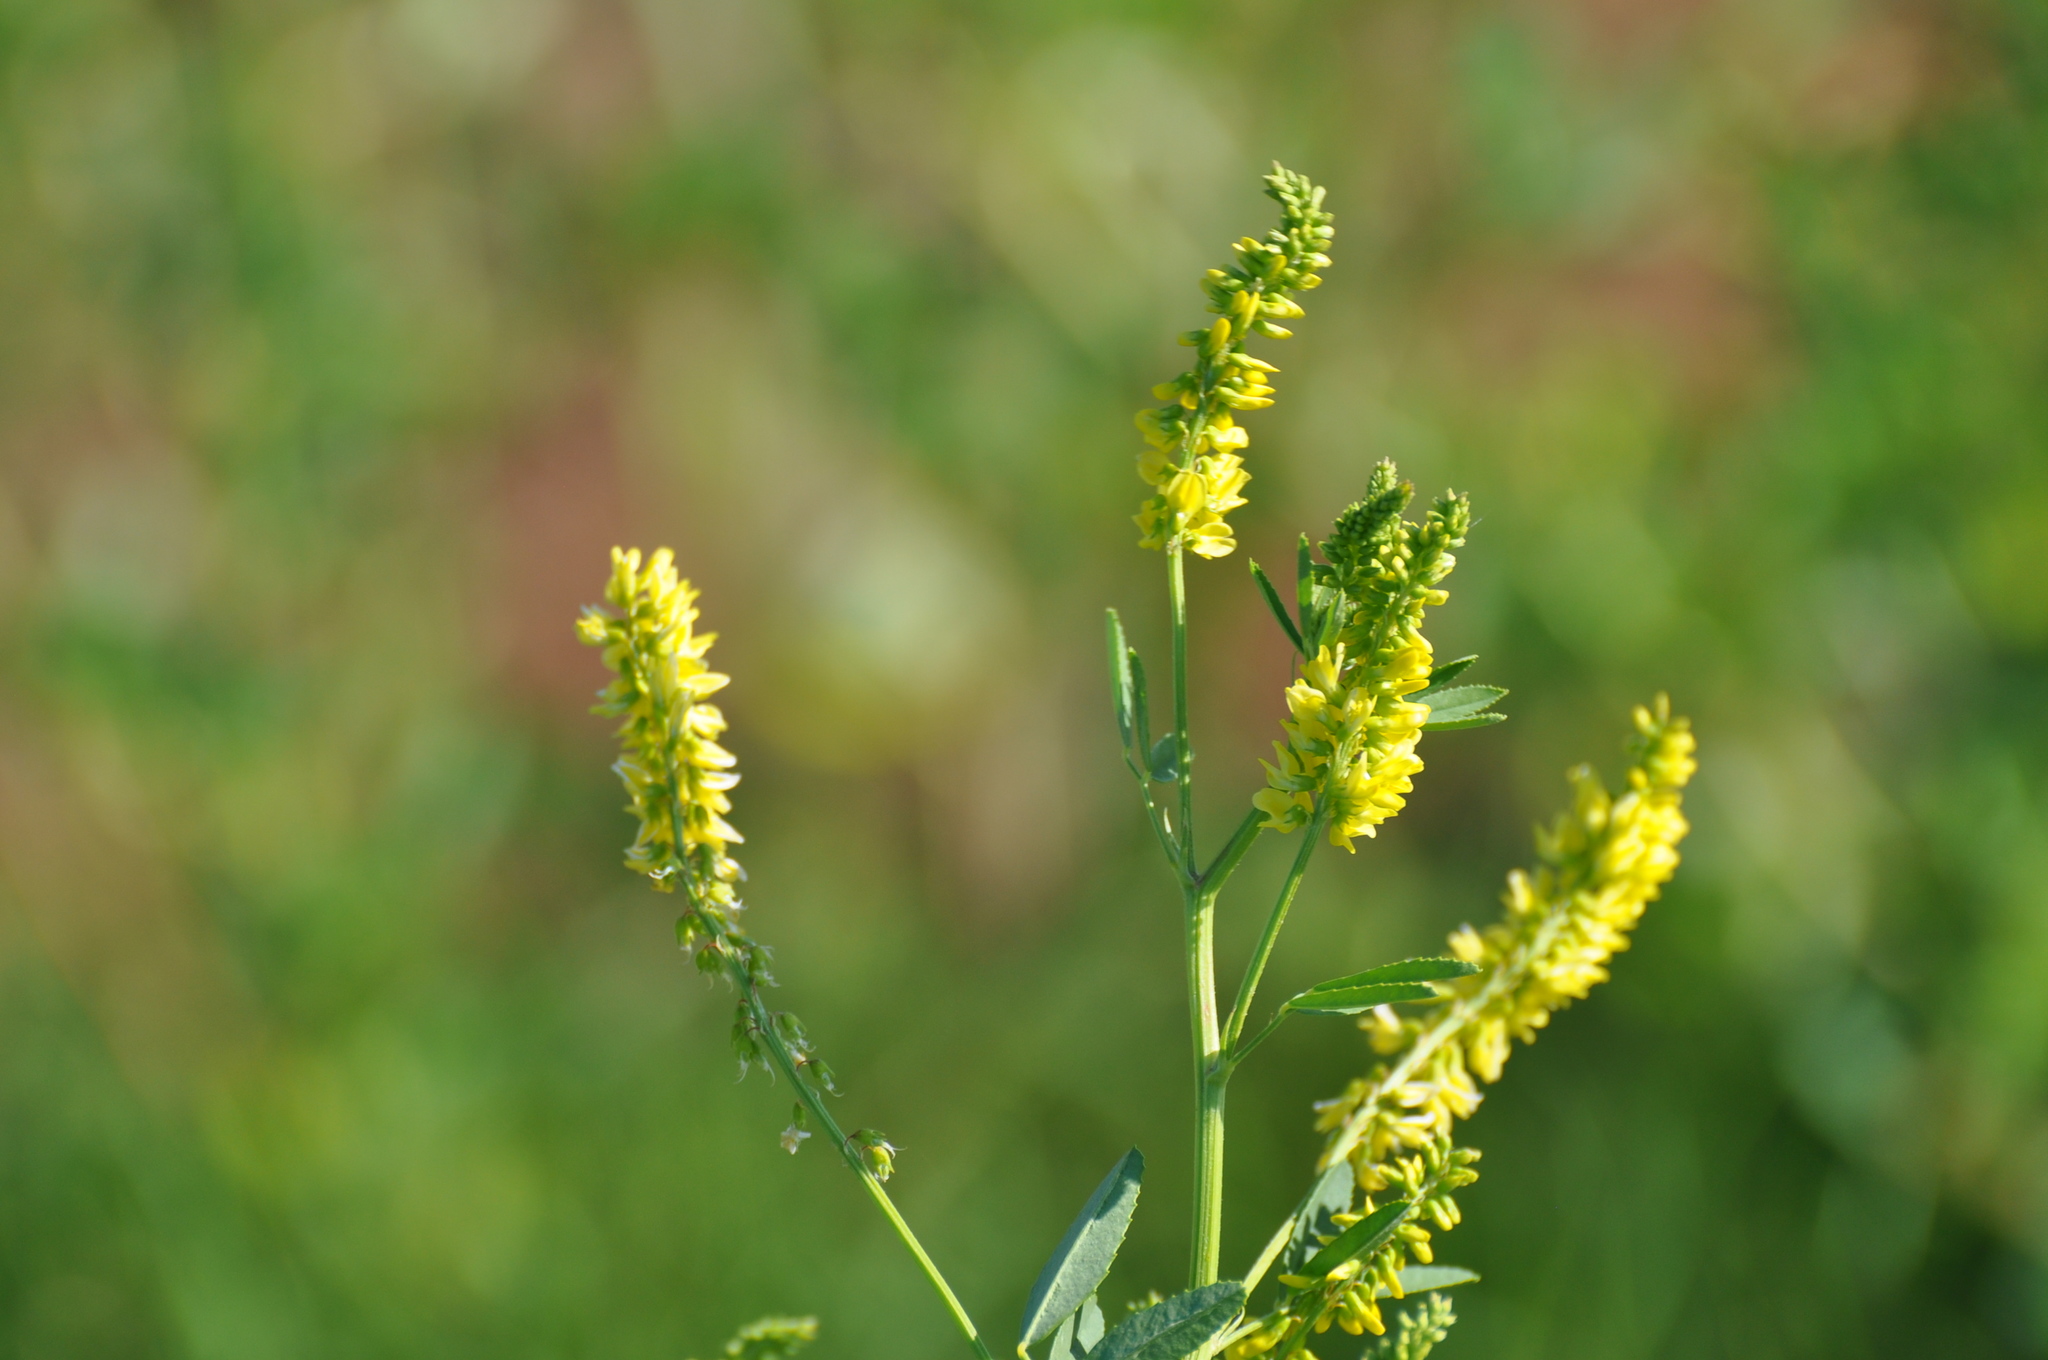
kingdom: Plantae
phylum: Tracheophyta
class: Magnoliopsida
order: Fabales
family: Fabaceae
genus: Melilotus
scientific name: Melilotus officinalis
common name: Sweetclover
